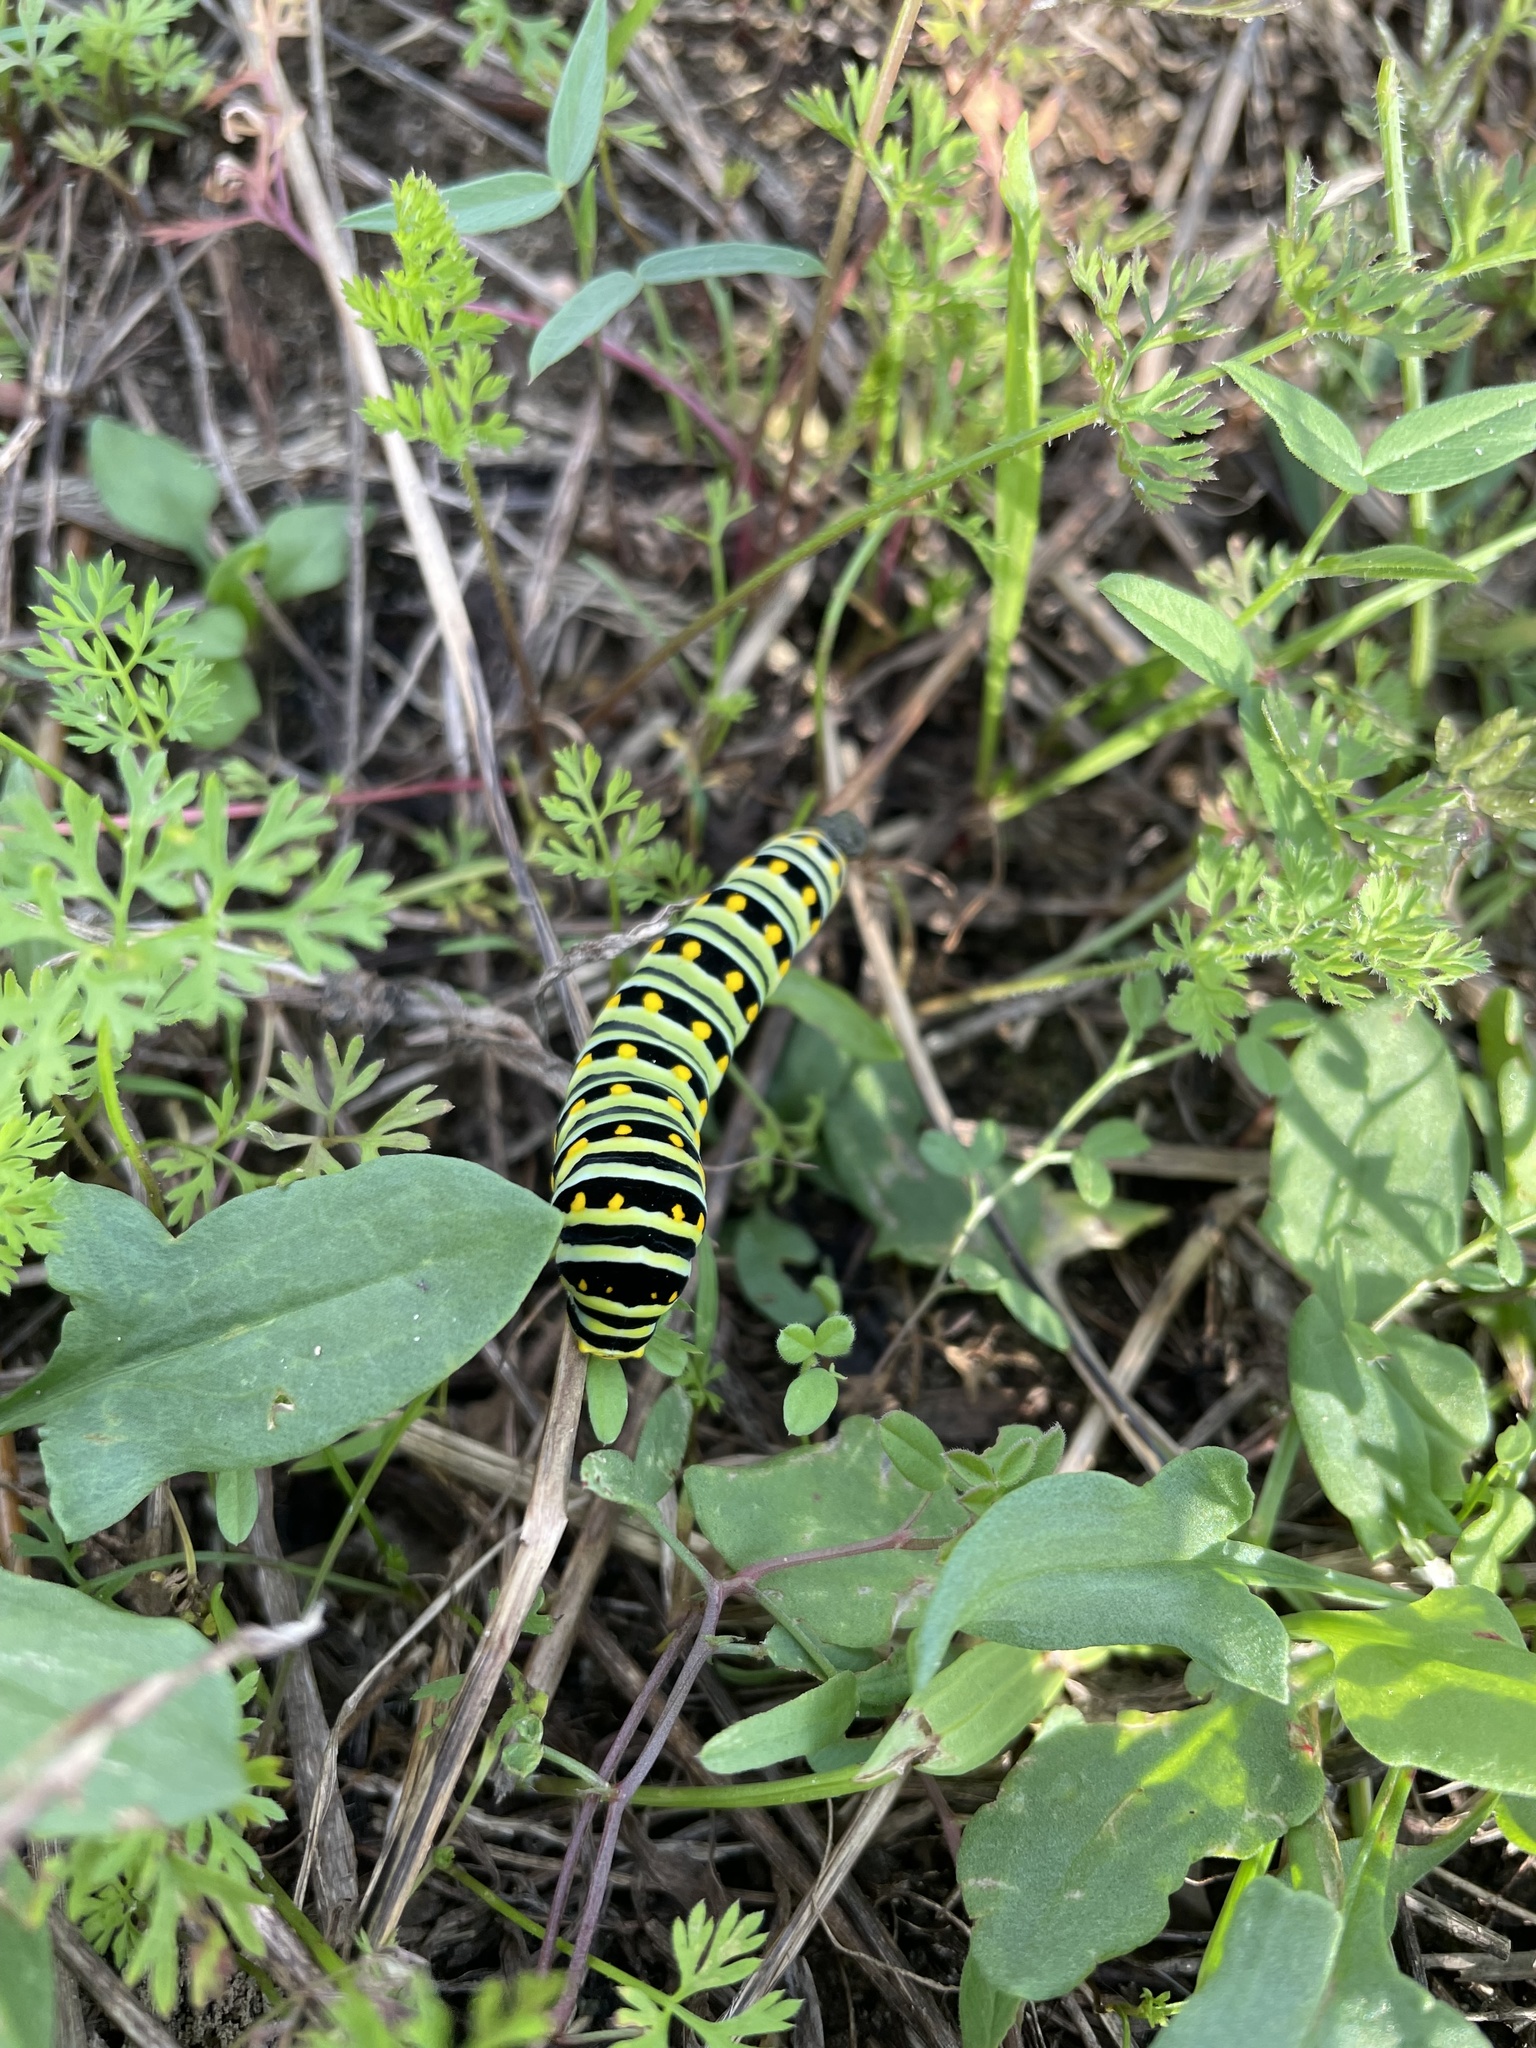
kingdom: Animalia
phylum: Arthropoda
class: Insecta
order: Lepidoptera
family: Papilionidae
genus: Papilio
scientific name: Papilio polyxenes
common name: Black swallowtail
